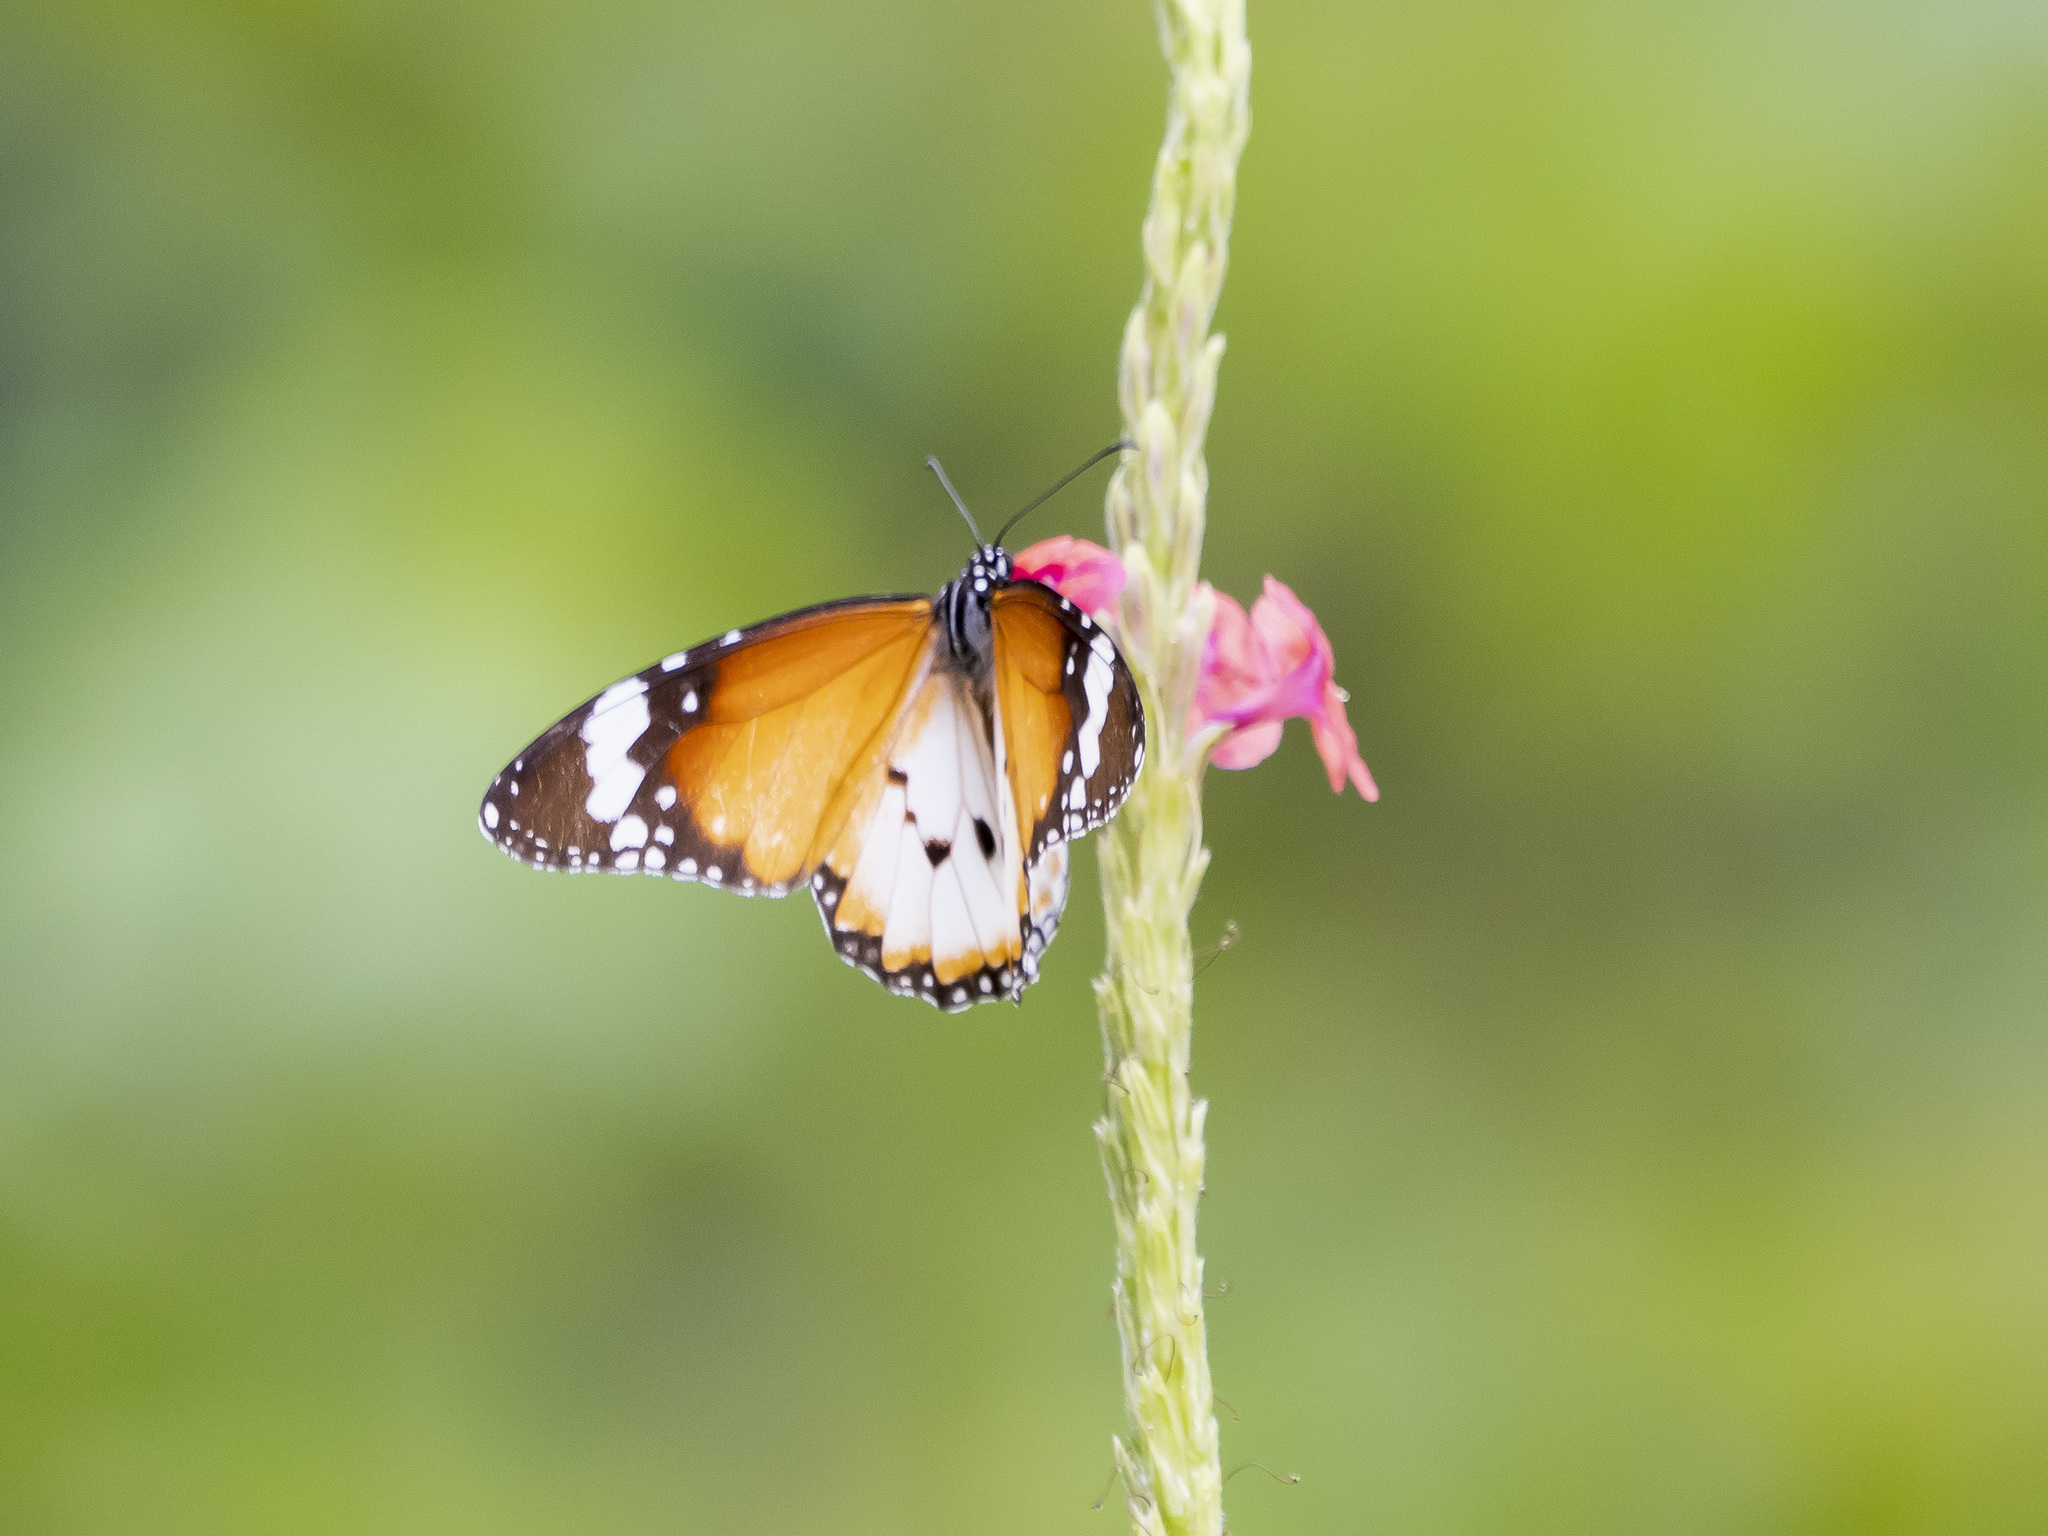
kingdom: Animalia
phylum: Arthropoda
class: Insecta
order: Lepidoptera
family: Nymphalidae
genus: Danaus
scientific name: Danaus chrysippus
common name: Plain tiger
